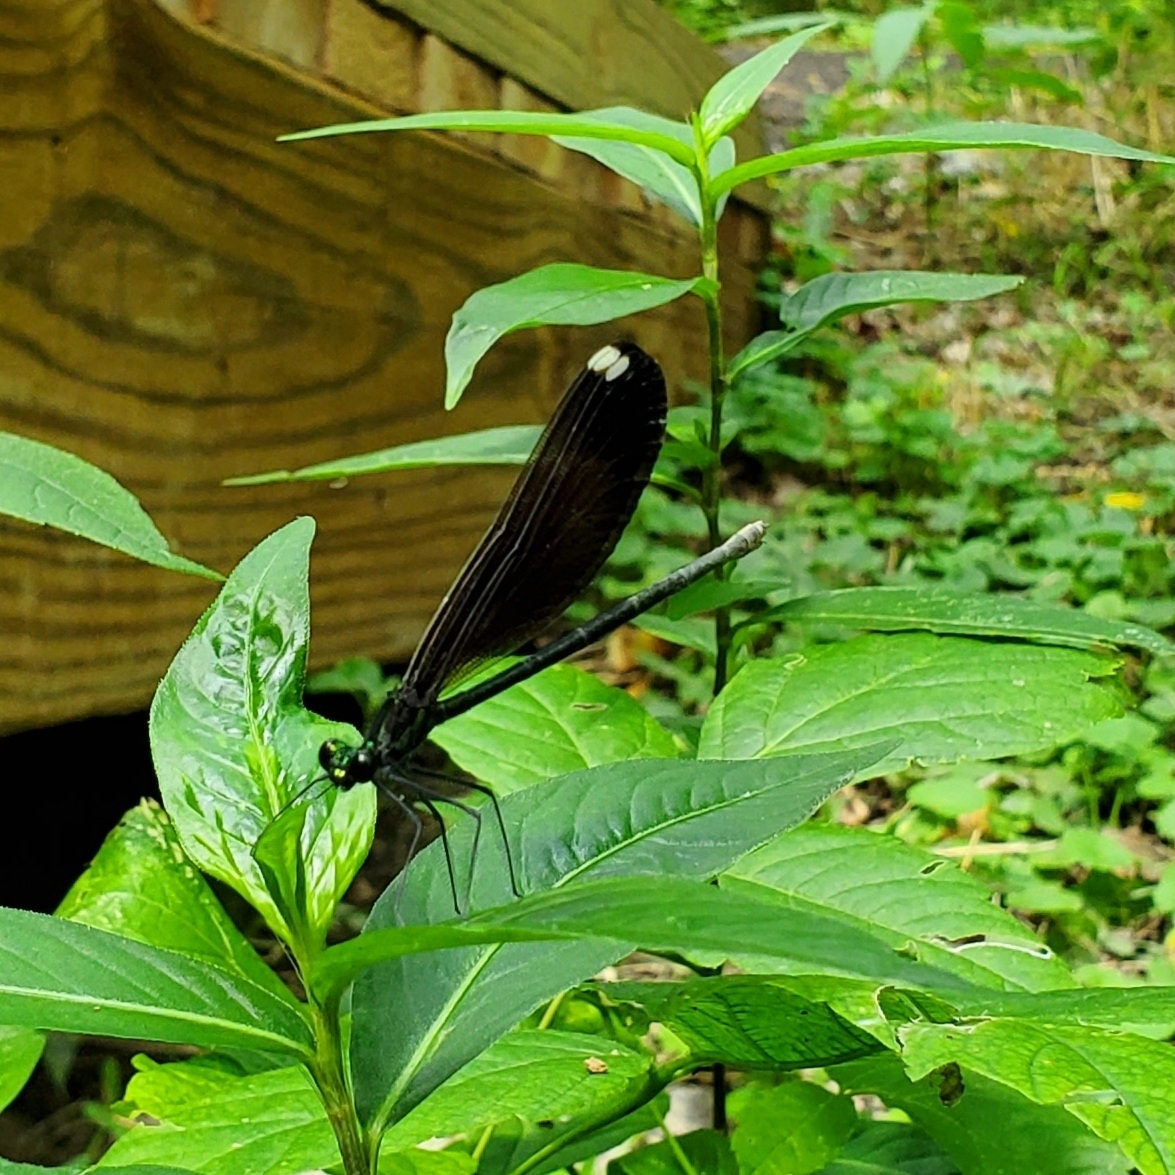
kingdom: Animalia
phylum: Arthropoda
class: Insecta
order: Odonata
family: Calopterygidae
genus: Calopteryx
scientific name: Calopteryx maculata
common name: Ebony jewelwing
